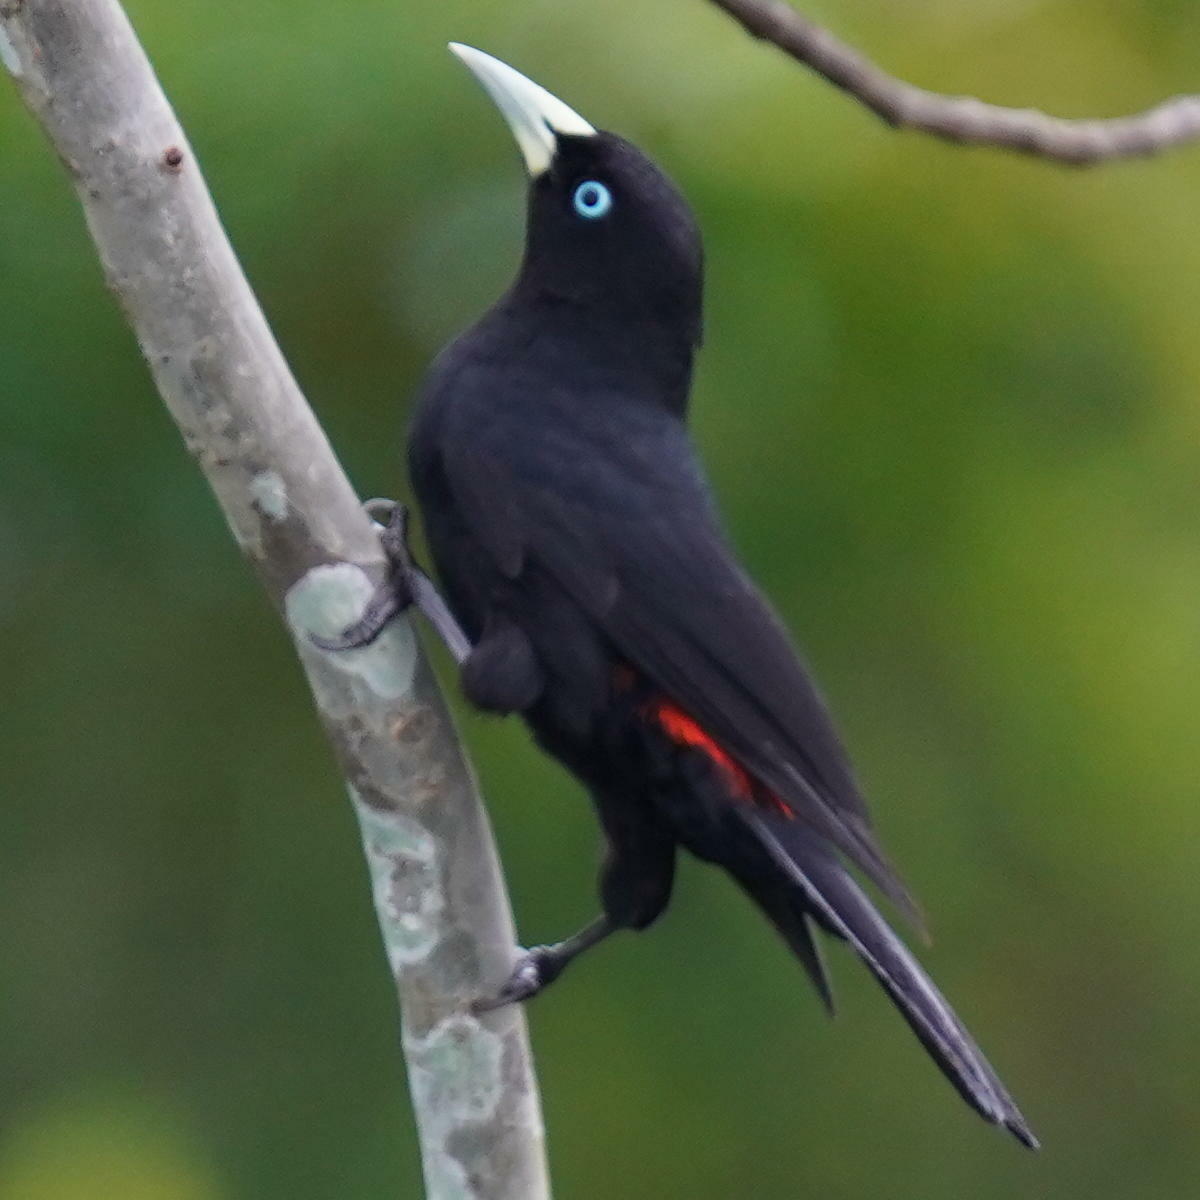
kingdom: Animalia
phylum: Chordata
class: Aves
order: Passeriformes
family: Icteridae
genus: Cacicus
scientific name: Cacicus uropygialis
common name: Scarlet-rumped cacique
